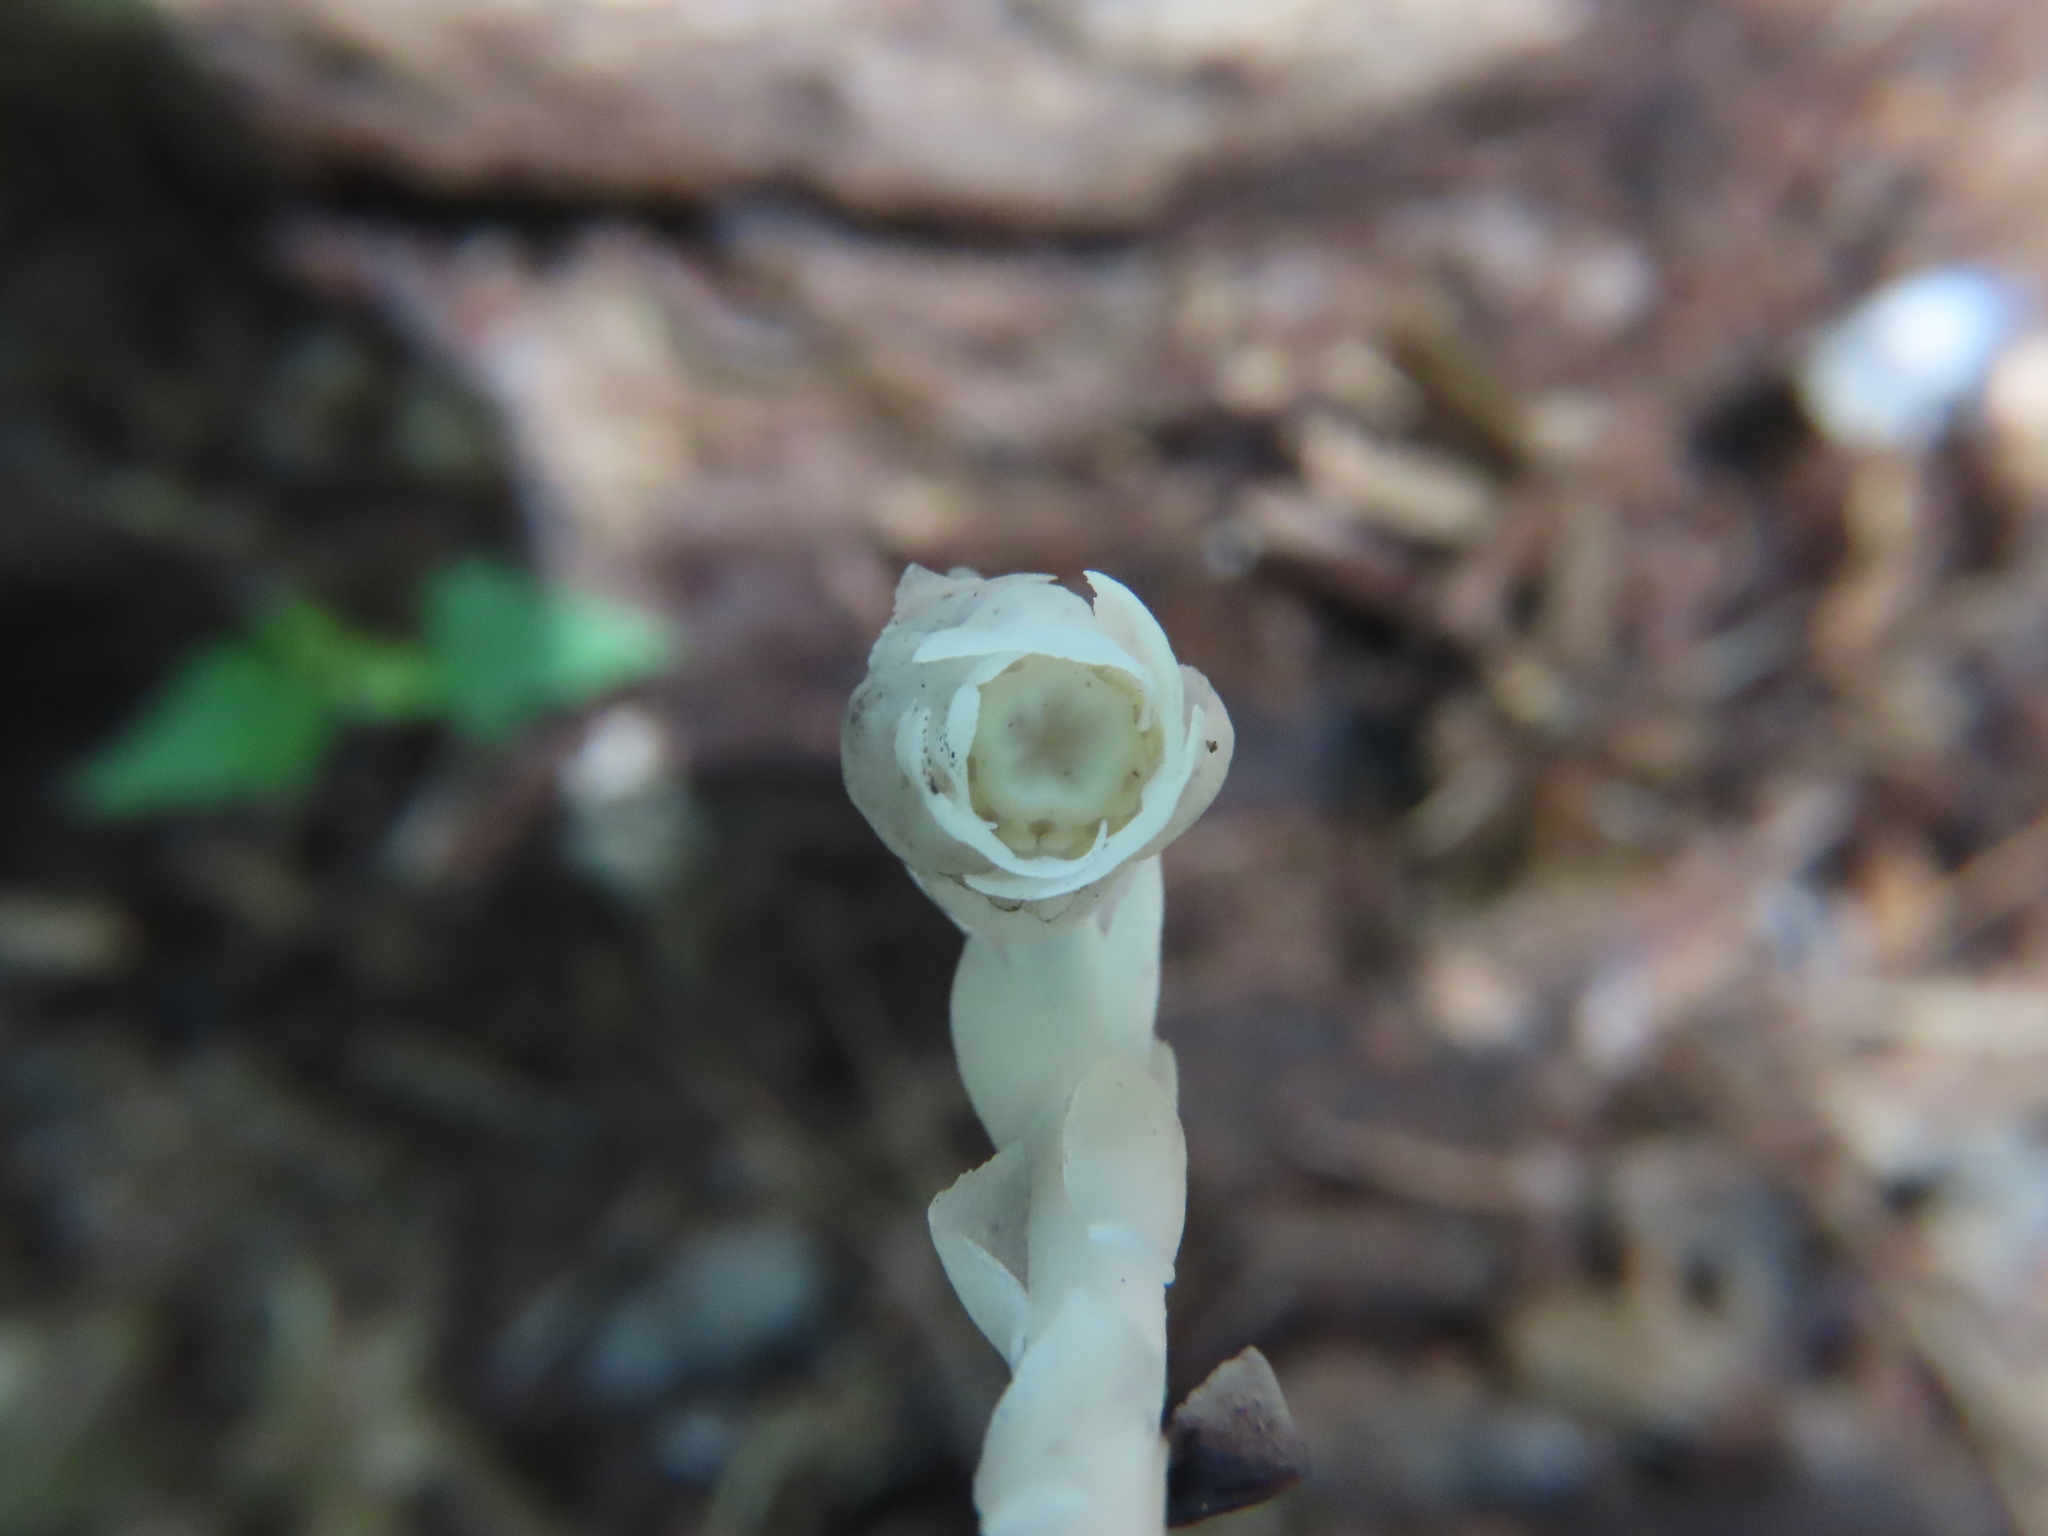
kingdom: Plantae
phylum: Tracheophyta
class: Magnoliopsida
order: Ericales
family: Ericaceae
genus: Monotropa
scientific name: Monotropa uniflora
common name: Convulsion root
